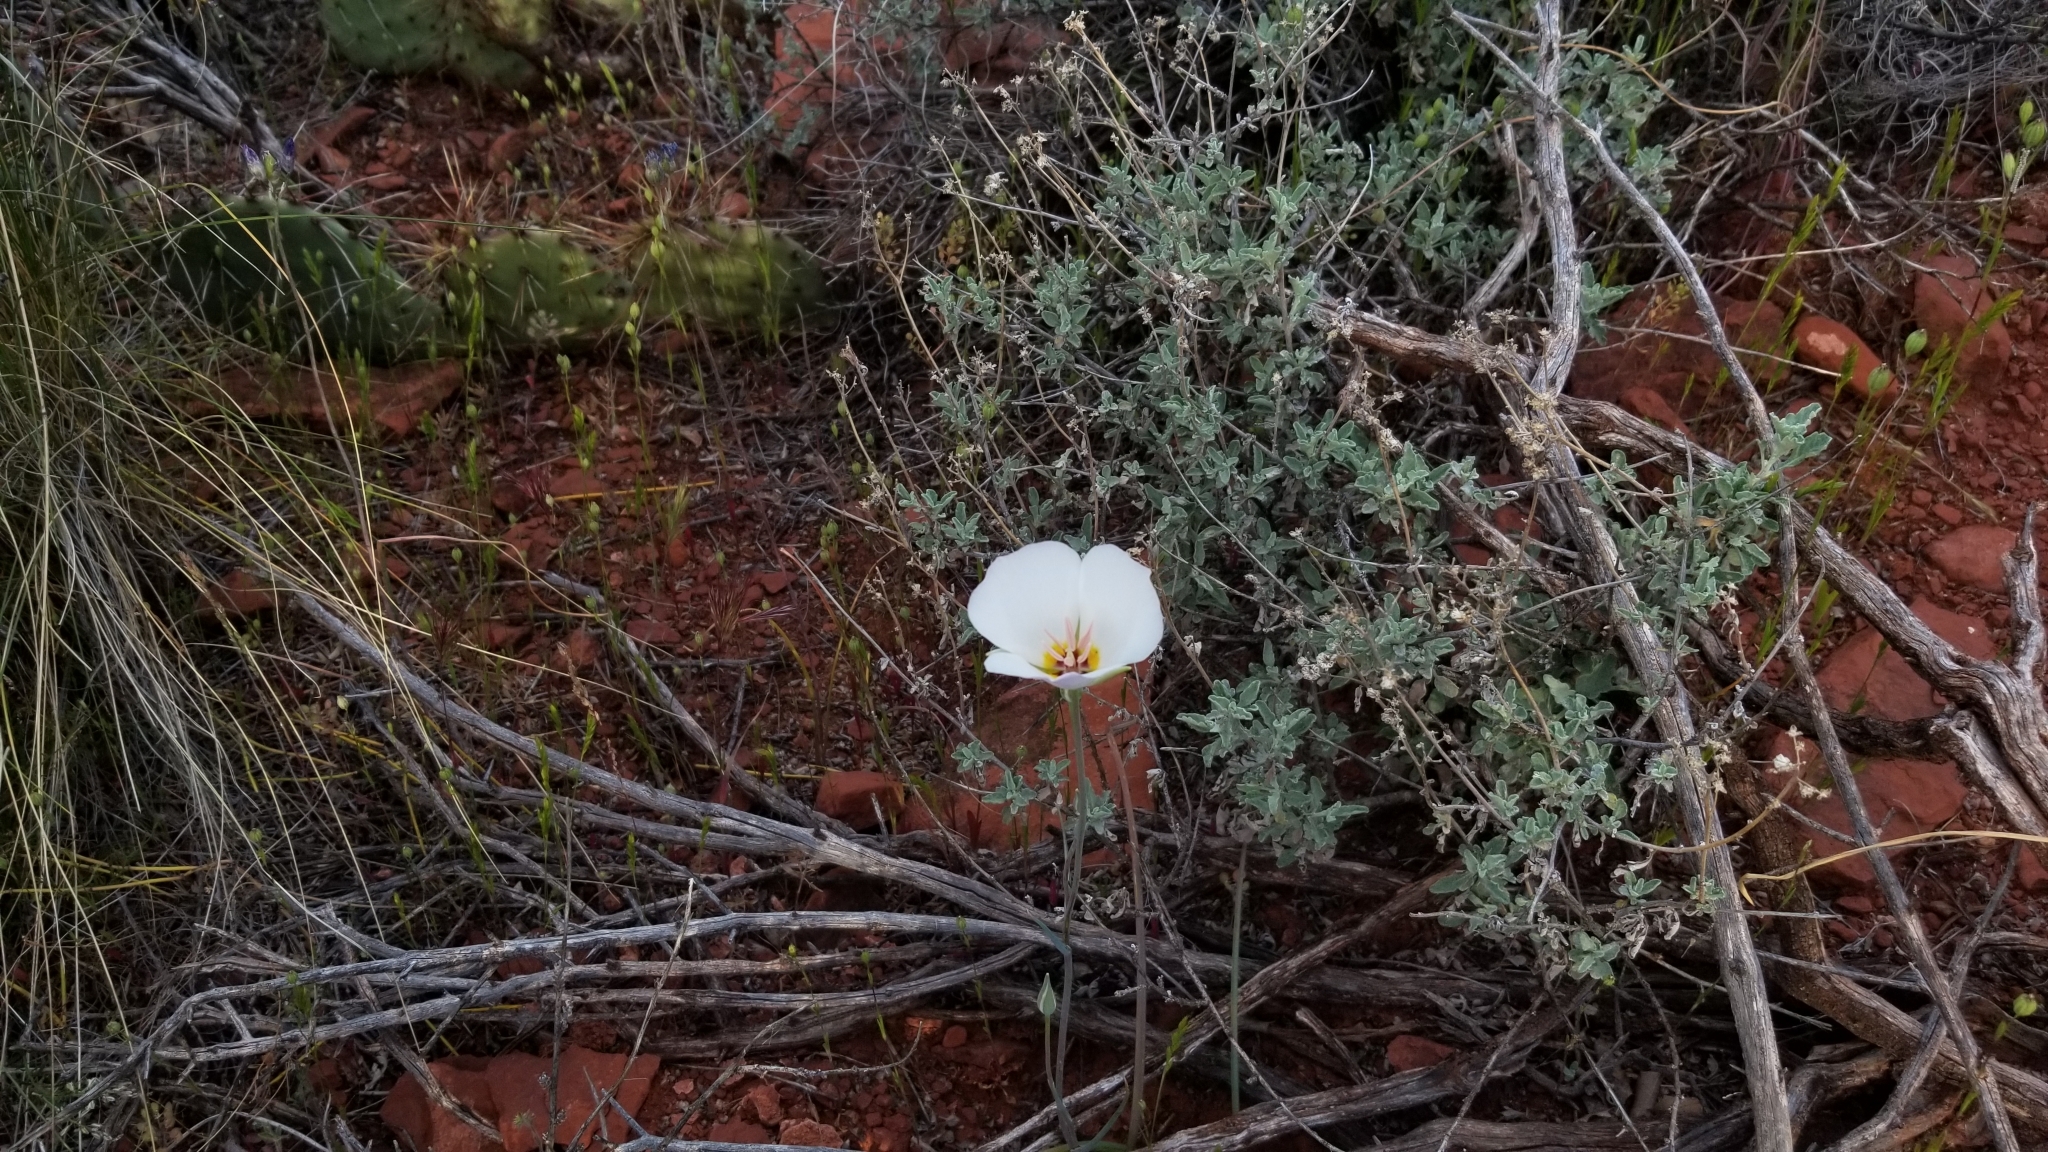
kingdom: Plantae
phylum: Tracheophyta
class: Liliopsida
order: Liliales
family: Liliaceae
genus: Calochortus
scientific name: Calochortus flexuosus
